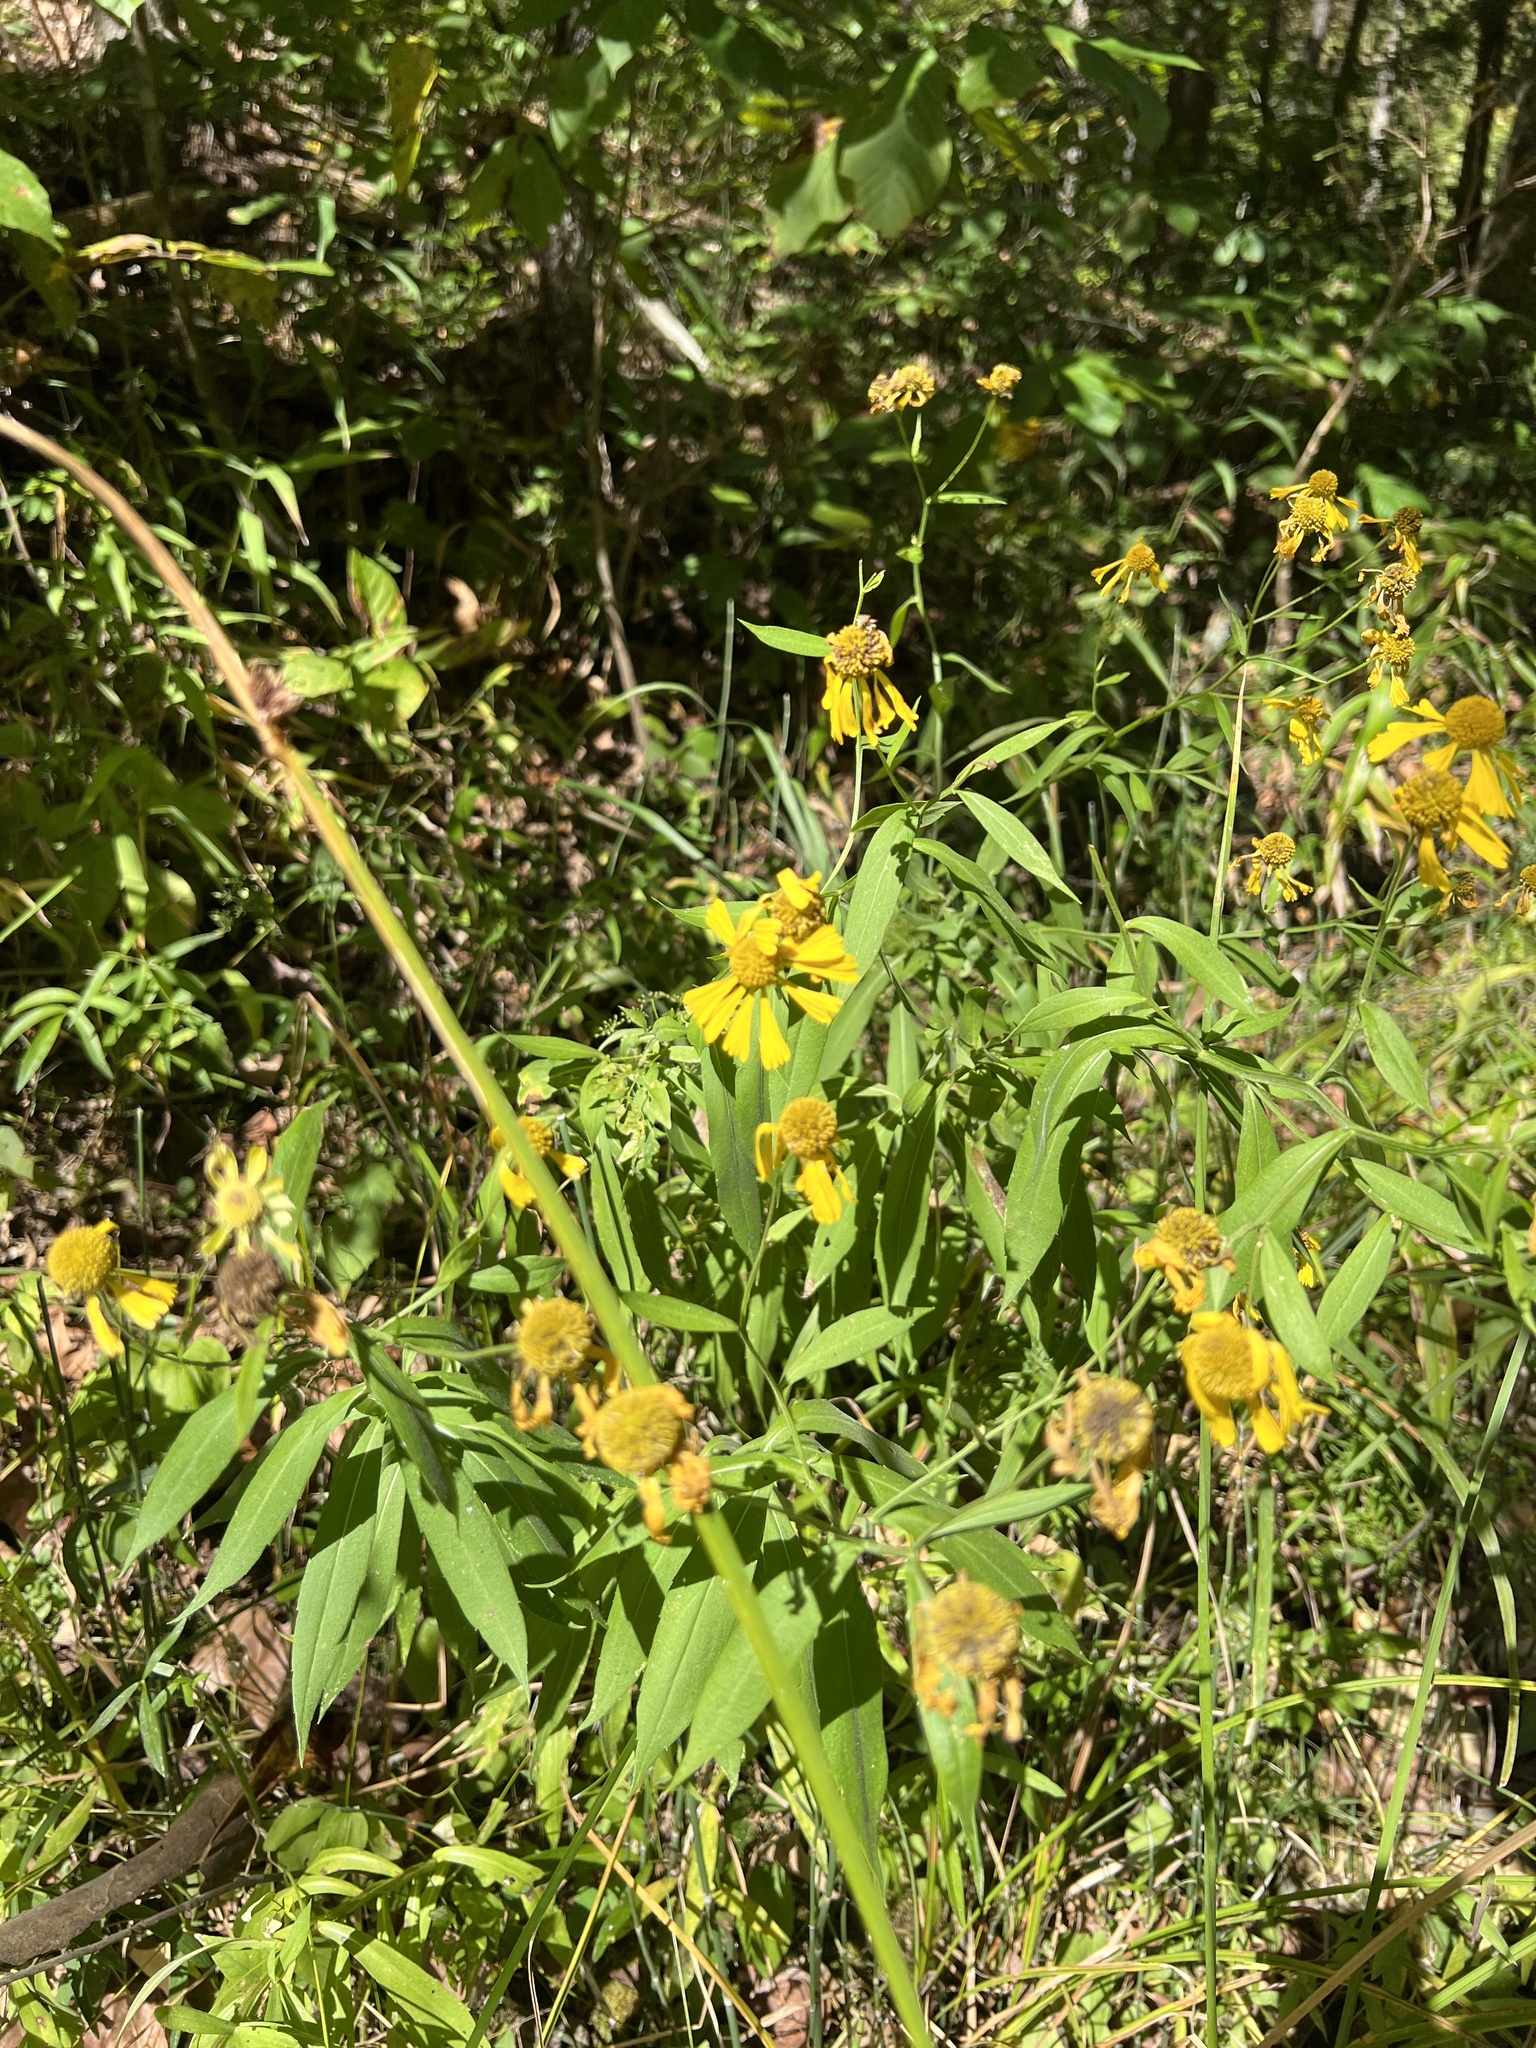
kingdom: Plantae
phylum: Tracheophyta
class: Magnoliopsida
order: Asterales
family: Asteraceae
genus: Helenium
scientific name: Helenium autumnale
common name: Sneezeweed
